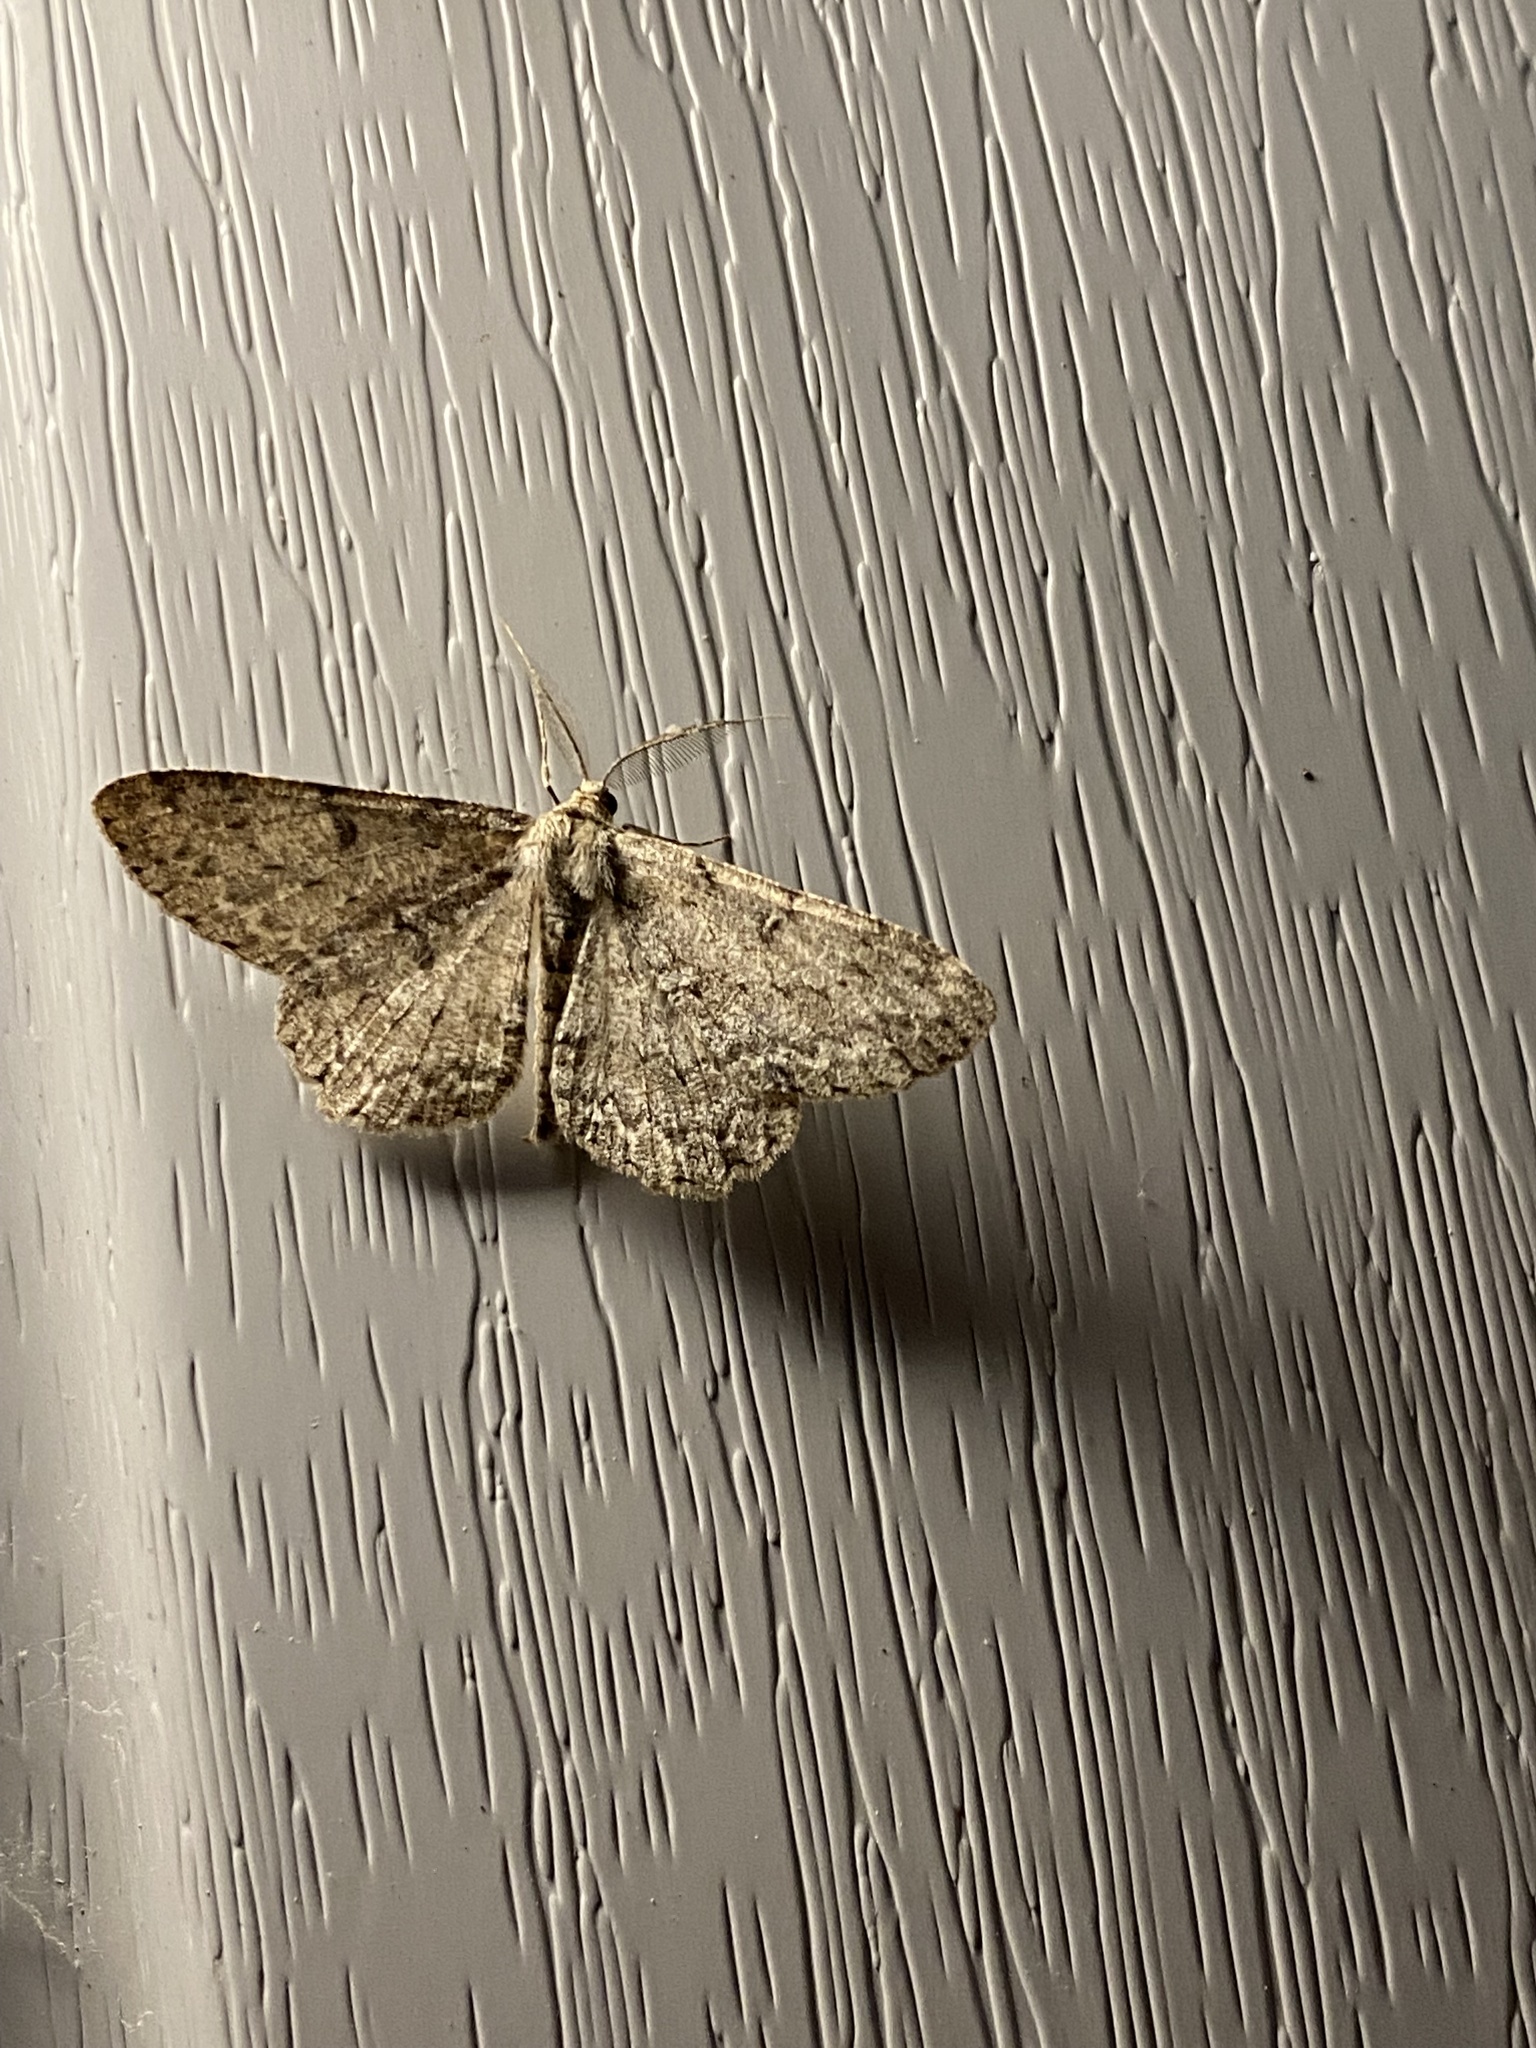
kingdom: Animalia
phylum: Arthropoda
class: Insecta
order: Lepidoptera
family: Geometridae
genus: Hypomecis
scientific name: Hypomecis punctinalis
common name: Pale oak beauty
